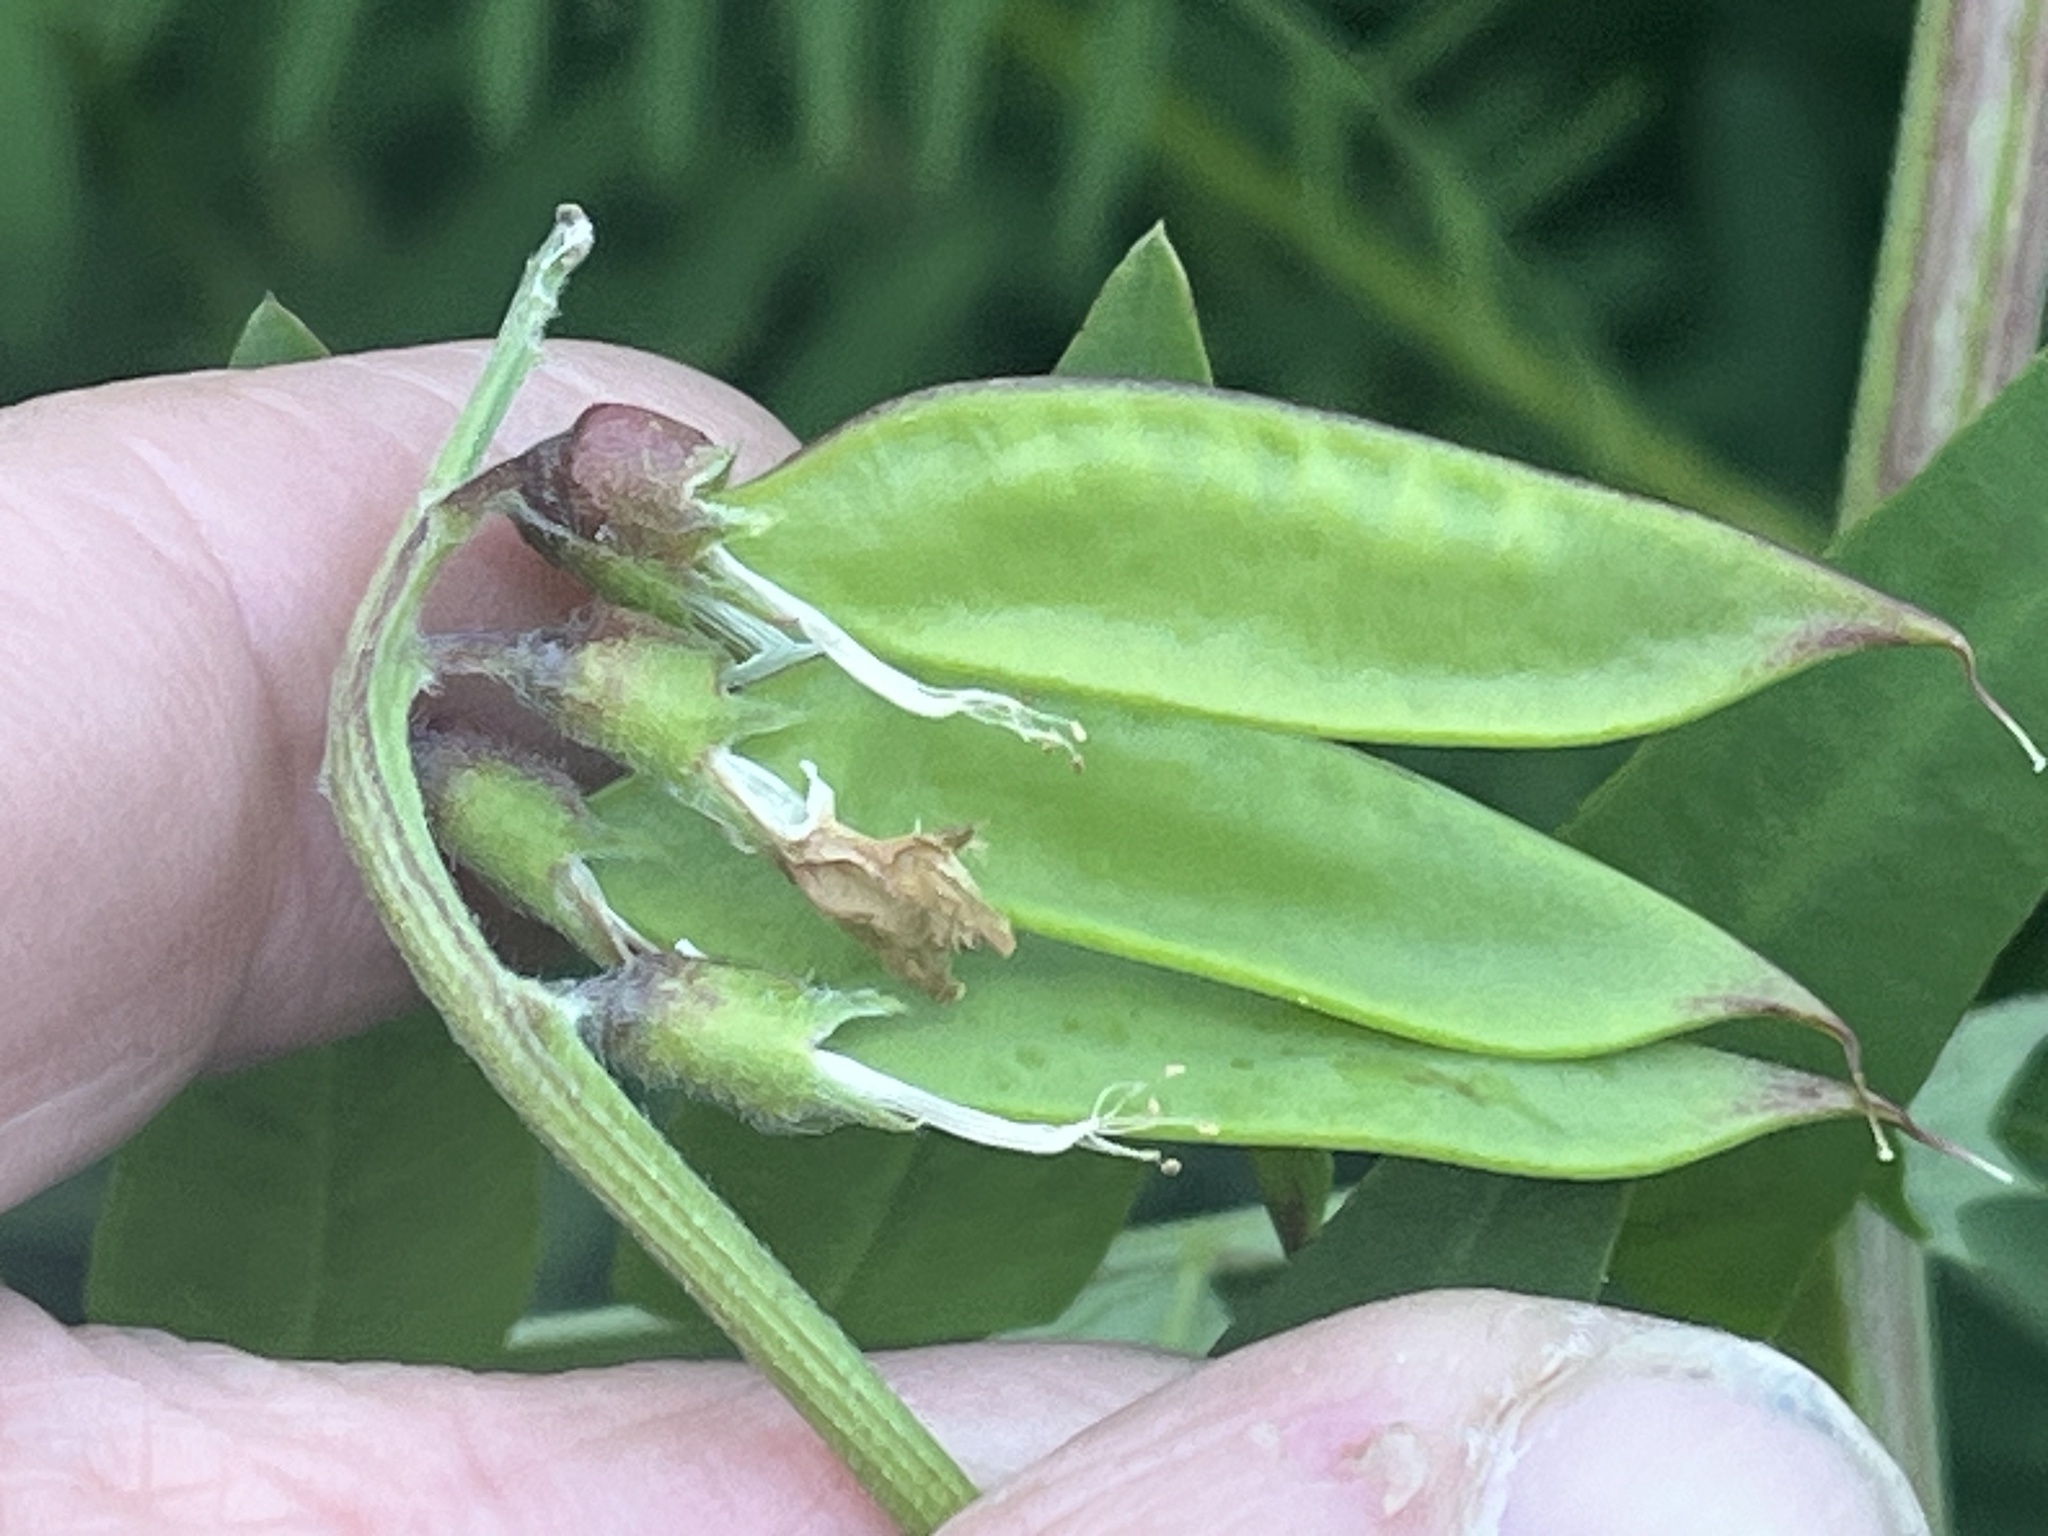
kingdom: Plantae
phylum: Tracheophyta
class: Magnoliopsida
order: Fabales
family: Fabaceae
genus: Vicia
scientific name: Vicia
